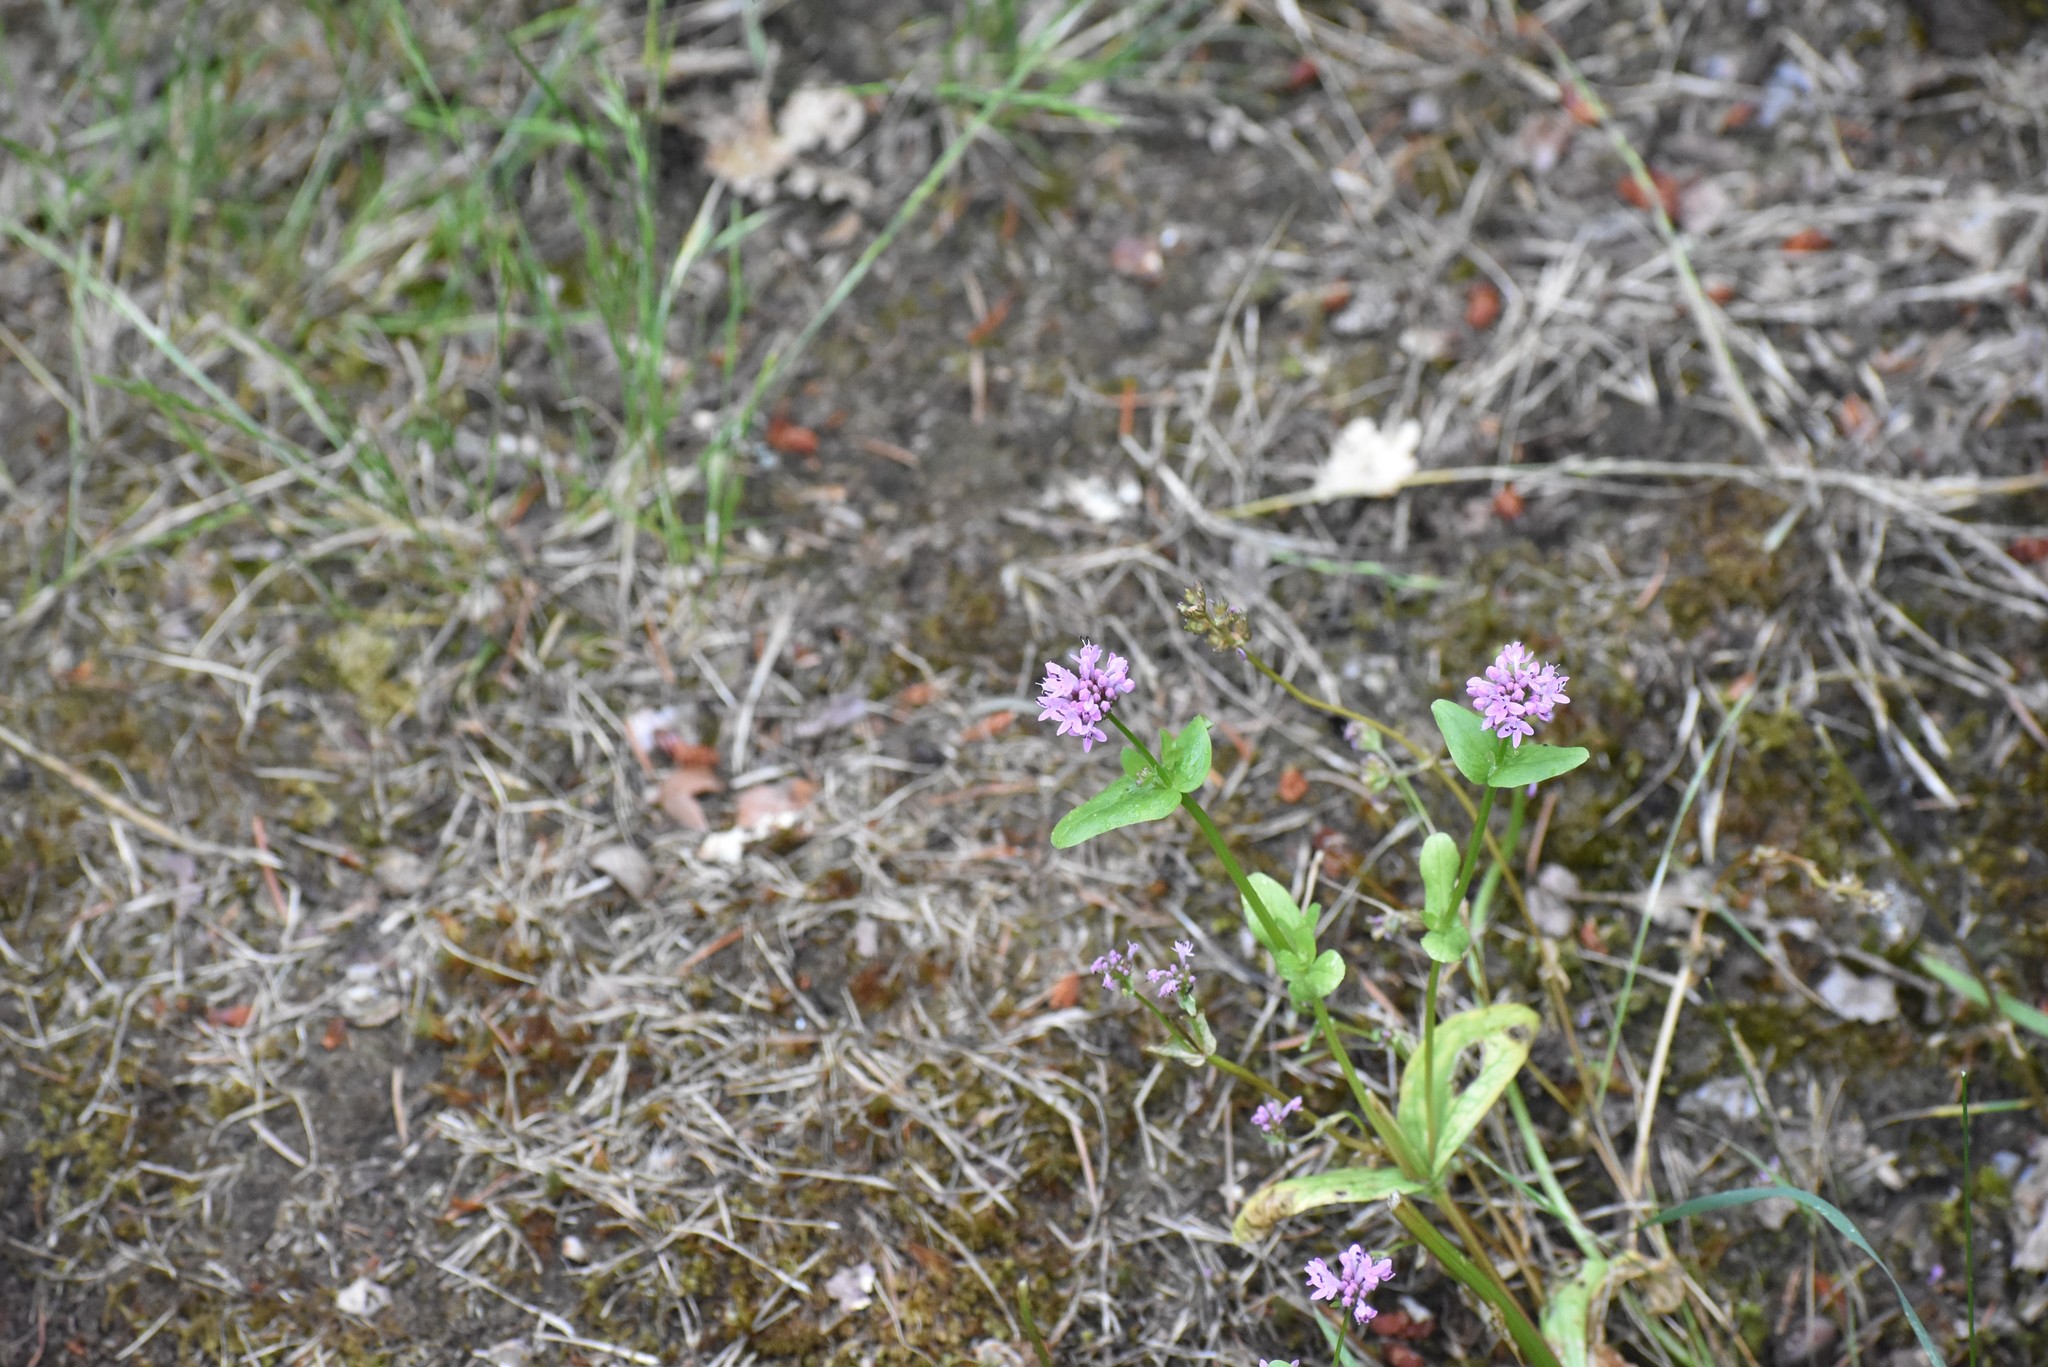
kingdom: Plantae
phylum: Tracheophyta
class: Magnoliopsida
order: Dipsacales
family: Caprifoliaceae
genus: Plectritis
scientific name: Plectritis congesta
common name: Pink plectritis
